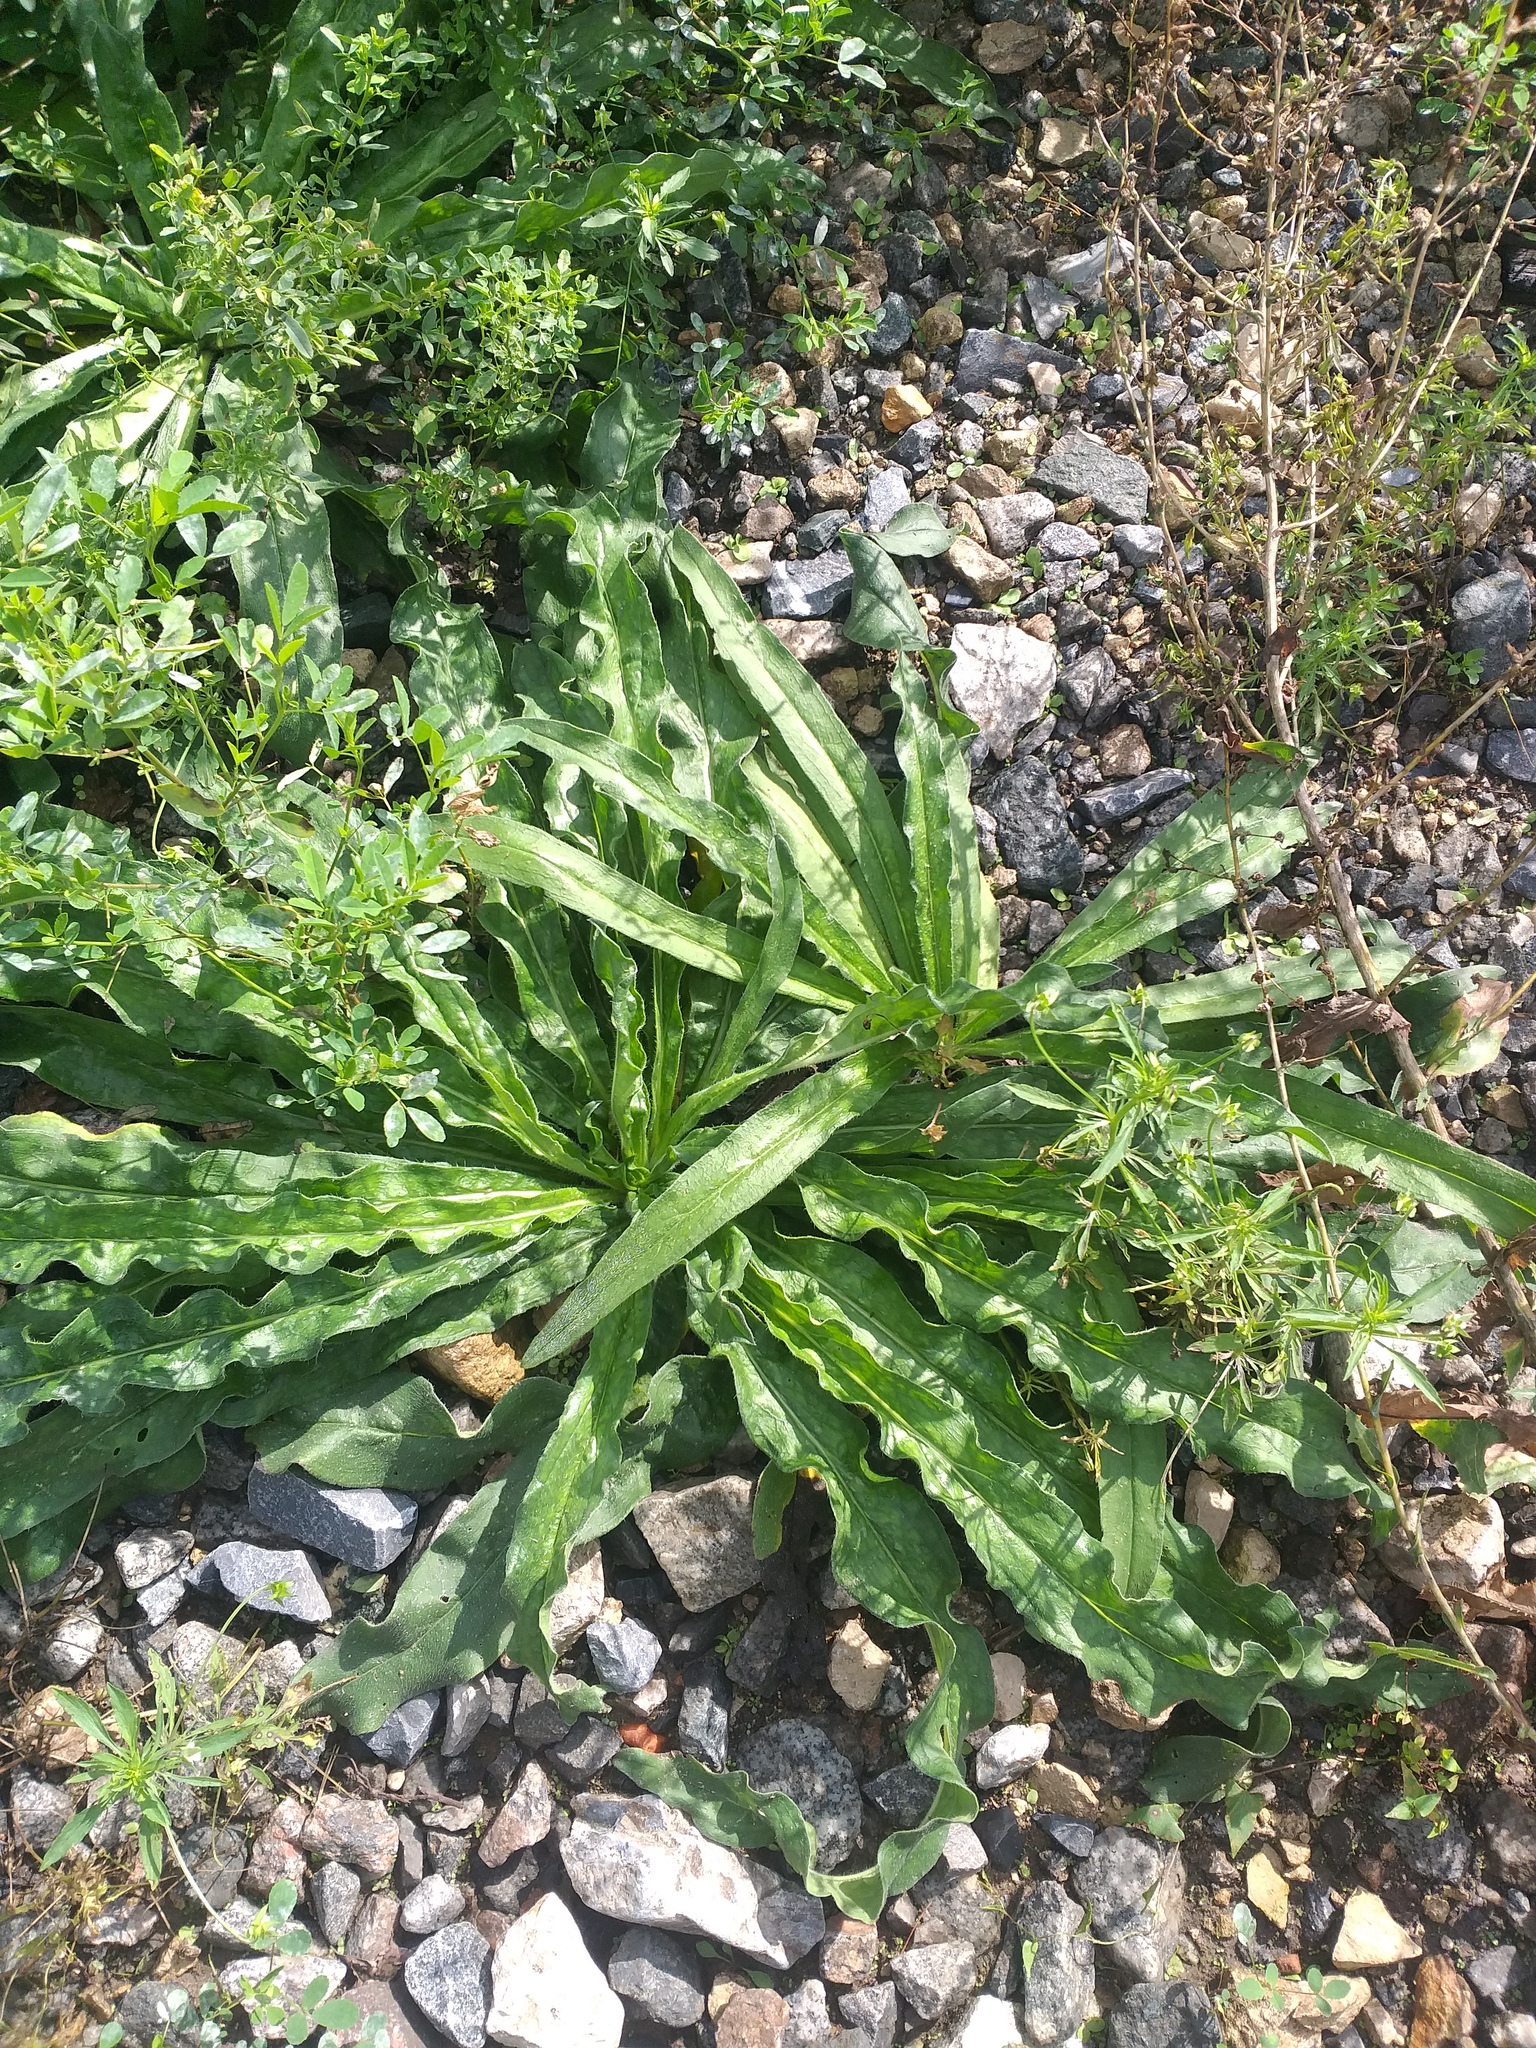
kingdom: Plantae
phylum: Tracheophyta
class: Magnoliopsida
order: Boraginales
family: Boraginaceae
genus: Echium
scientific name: Echium vulgare
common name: Common viper's bugloss
